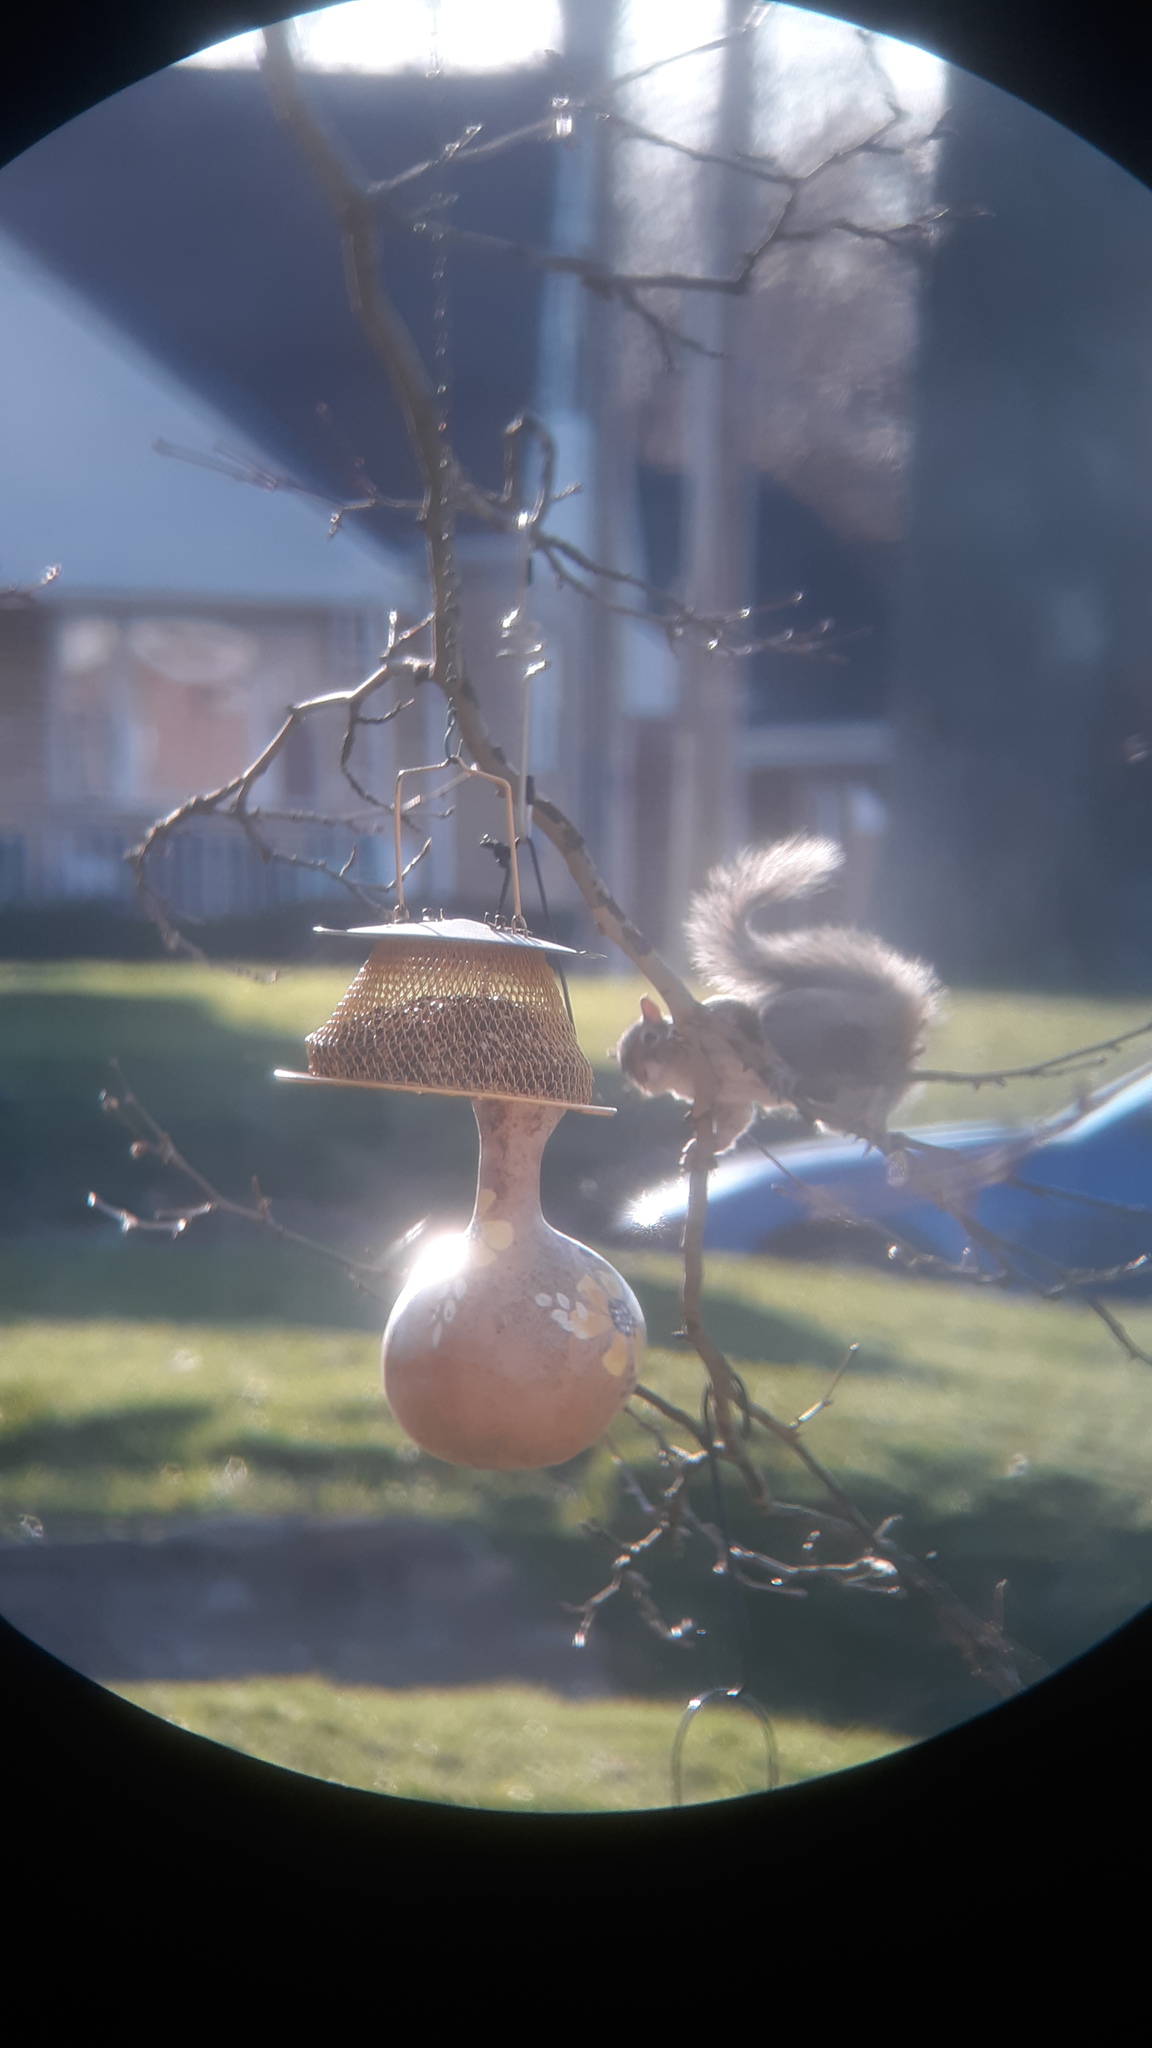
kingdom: Animalia
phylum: Chordata
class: Mammalia
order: Rodentia
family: Sciuridae
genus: Sciurus
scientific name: Sciurus carolinensis
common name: Eastern gray squirrel
